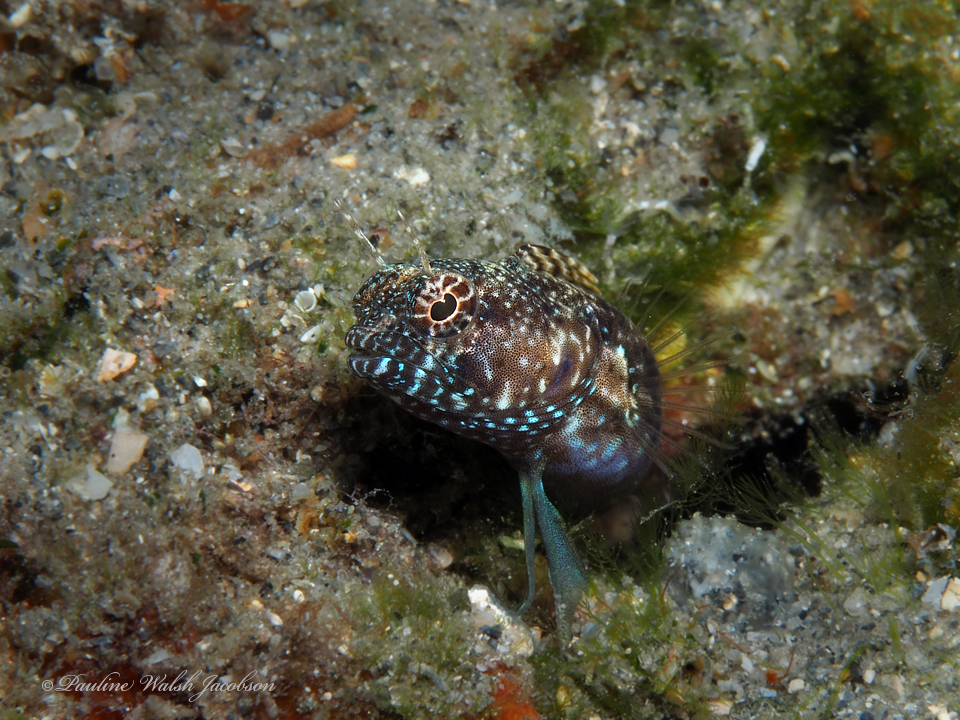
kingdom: Animalia
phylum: Chordata
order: Perciformes
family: Chaenopsidae
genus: Emblemaria
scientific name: Emblemaria pandionis
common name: Sailfin blenny
